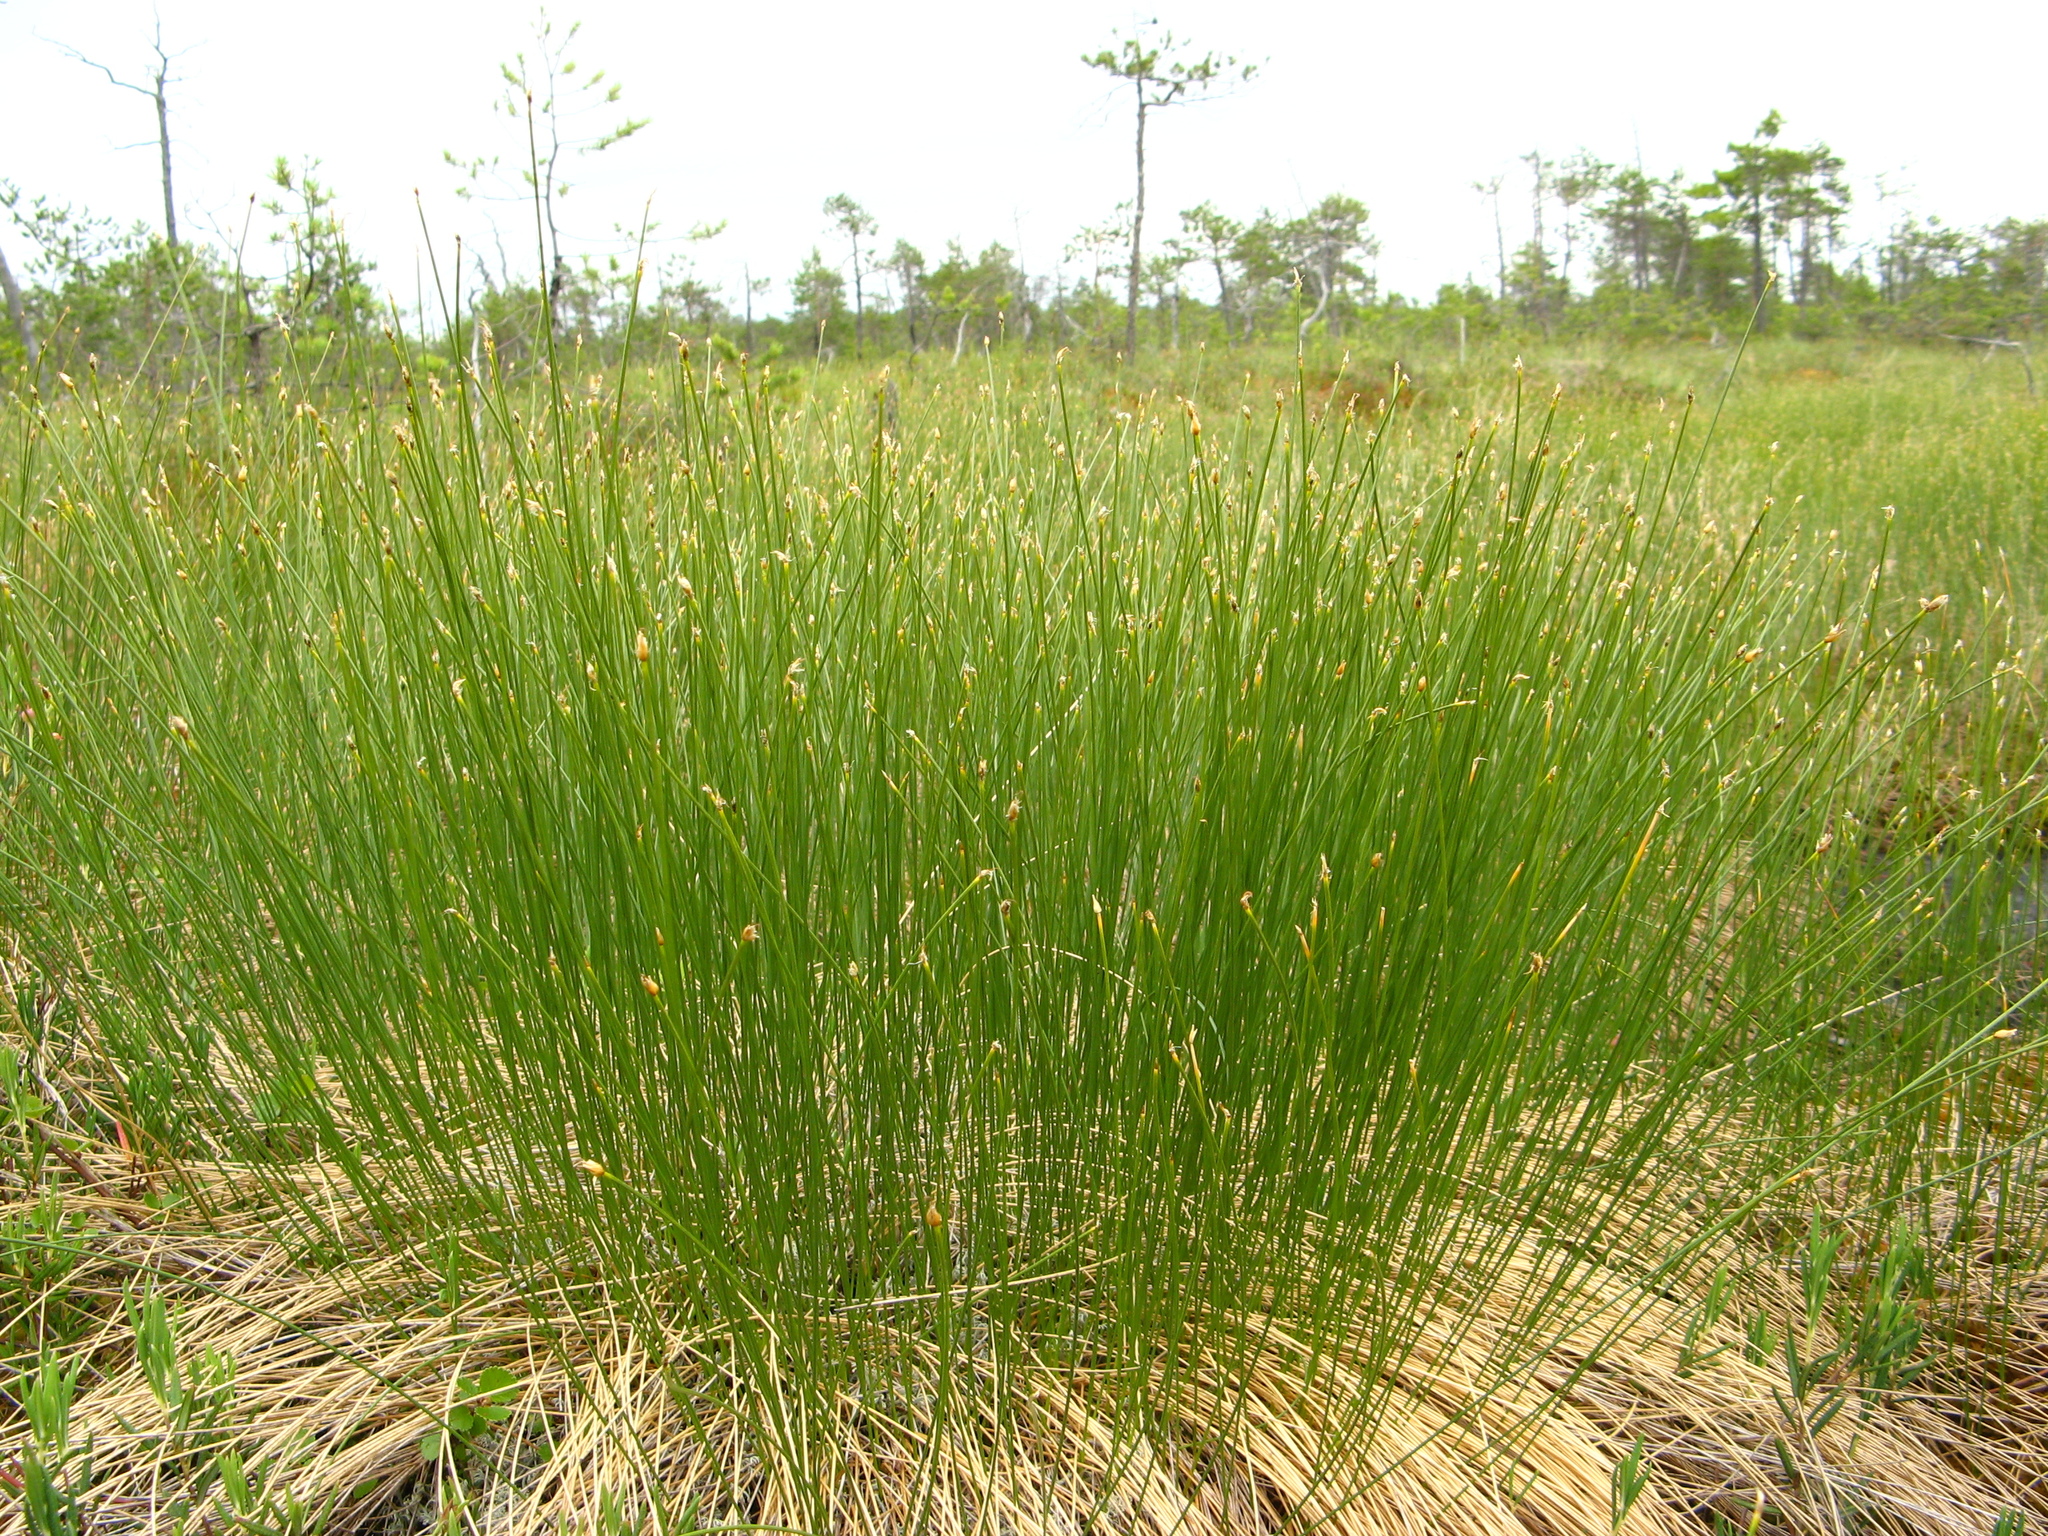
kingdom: Plantae
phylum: Tracheophyta
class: Liliopsida
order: Poales
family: Cyperaceae
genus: Trichophorum
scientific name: Trichophorum cespitosum
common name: Cespitose bulrush
